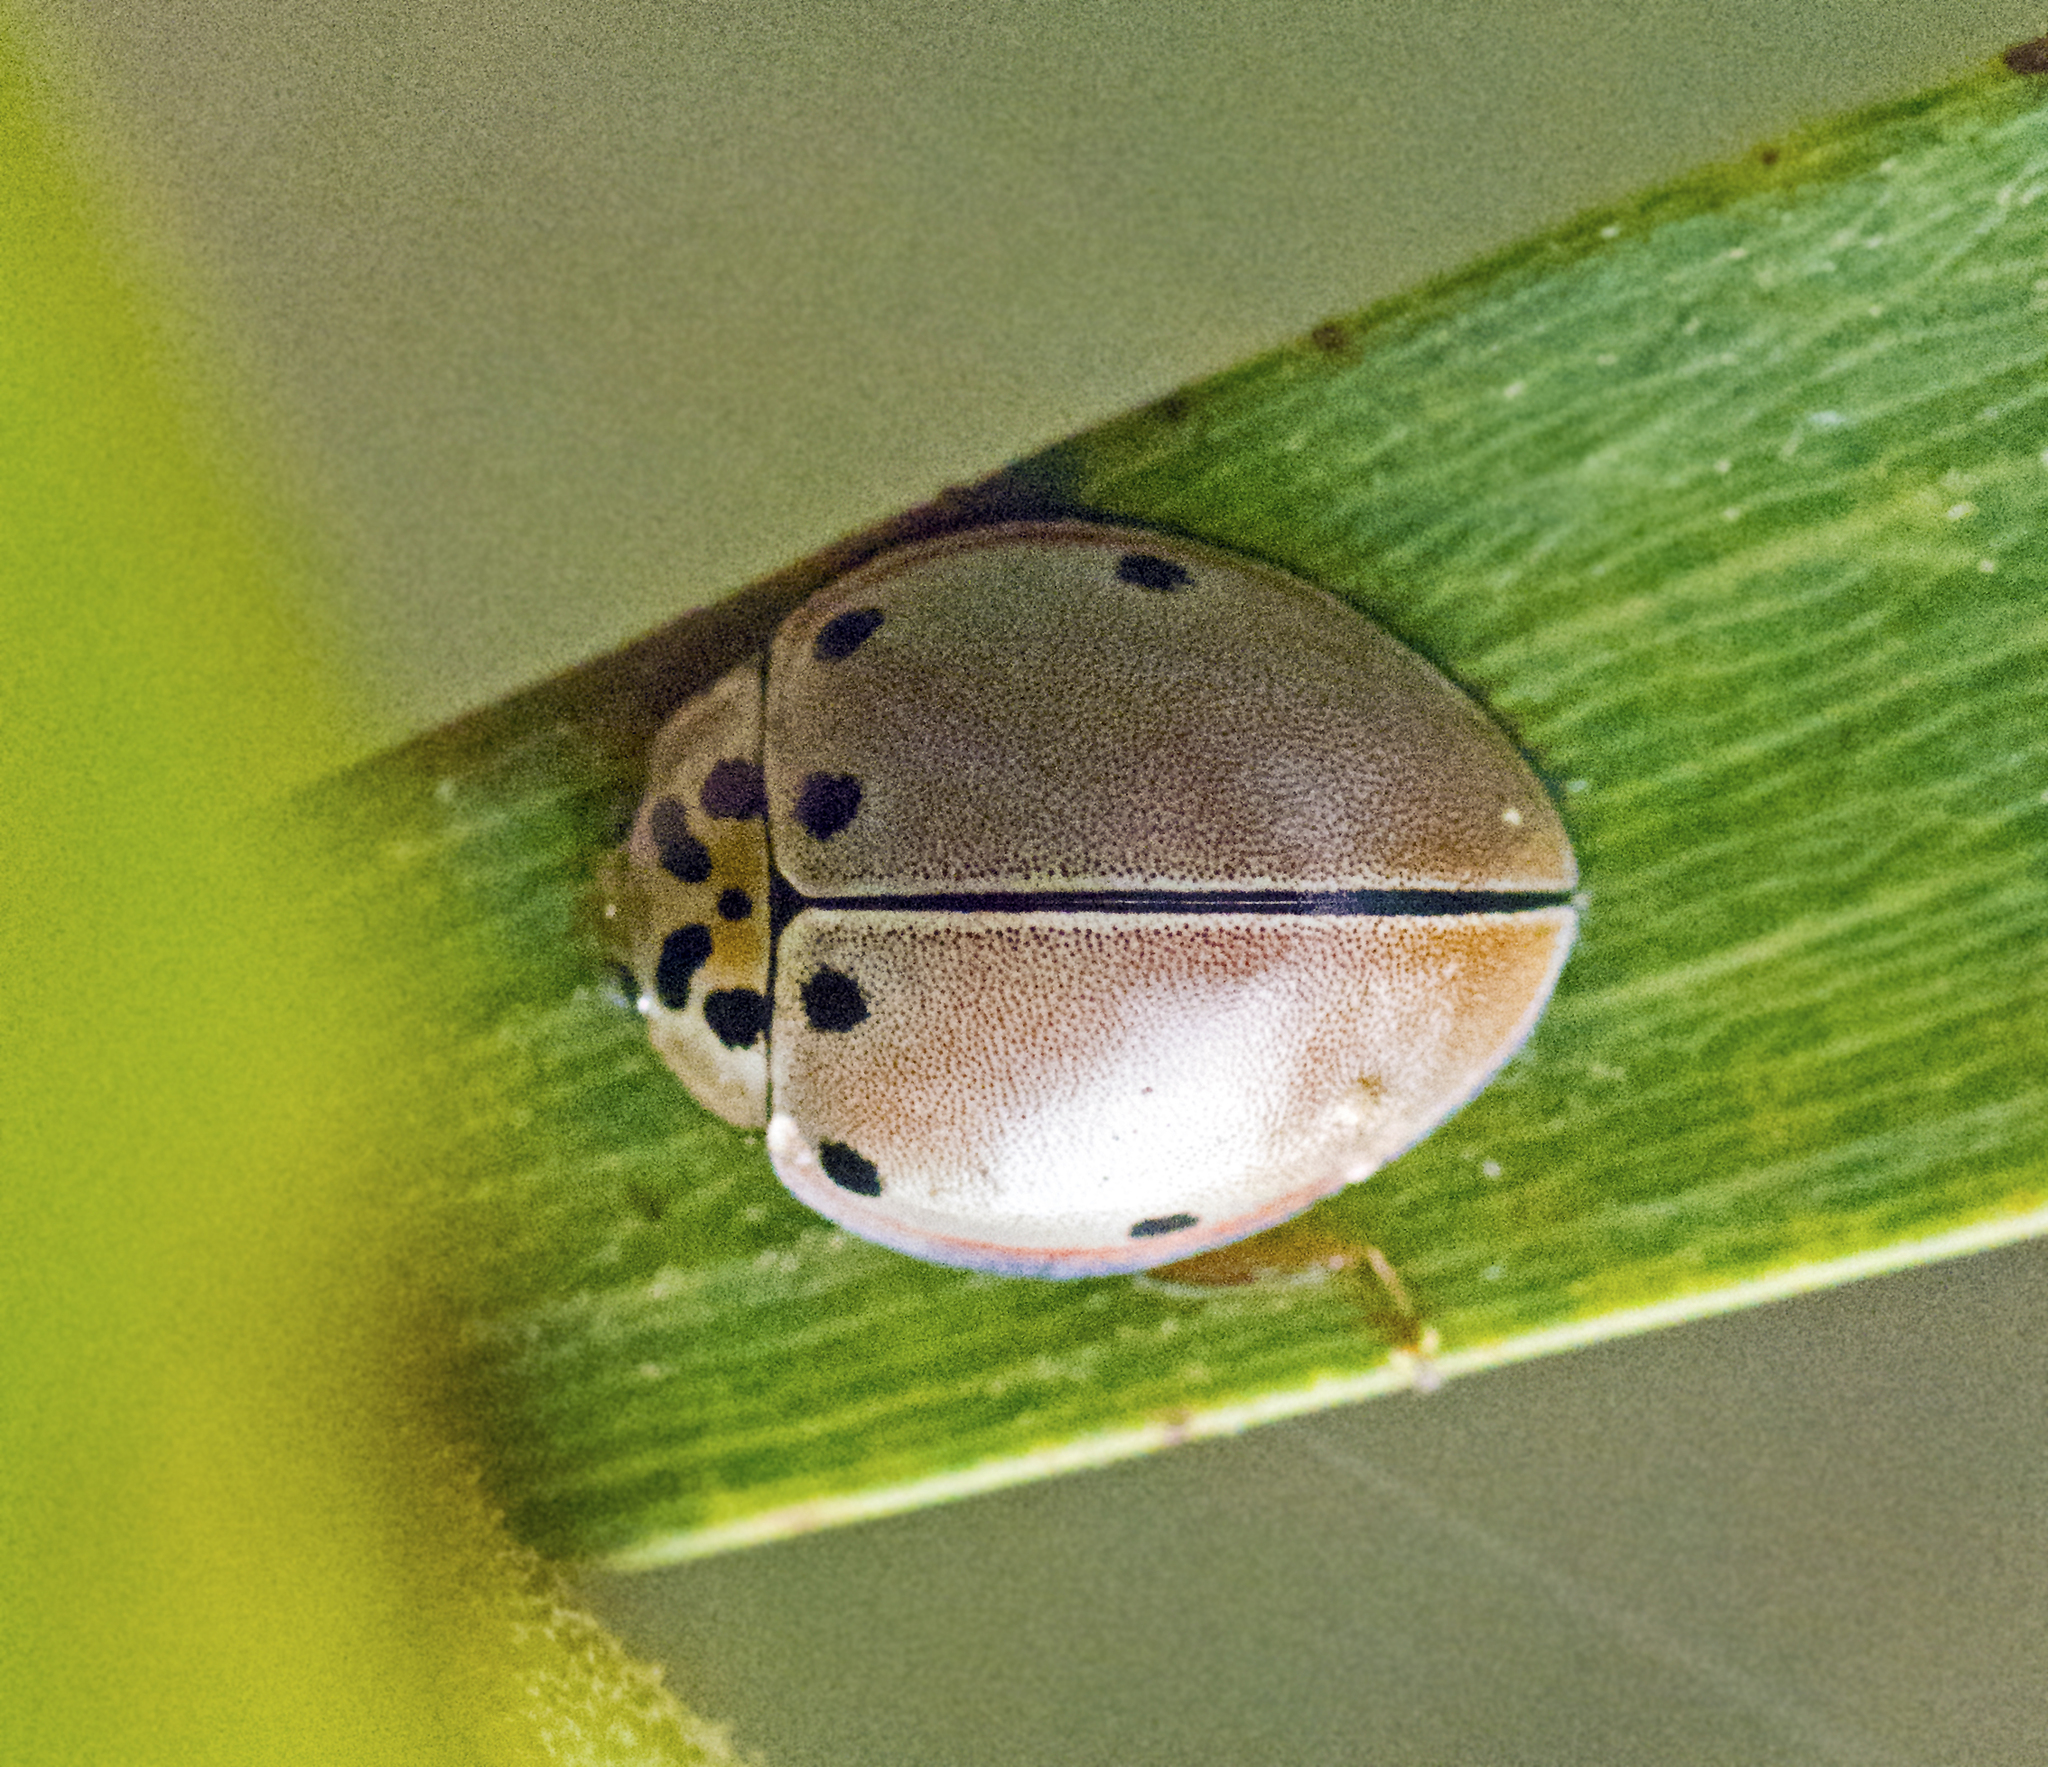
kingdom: Animalia
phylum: Arthropoda
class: Insecta
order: Coleoptera
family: Coccinellidae
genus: Archegleis
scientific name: Archegleis
